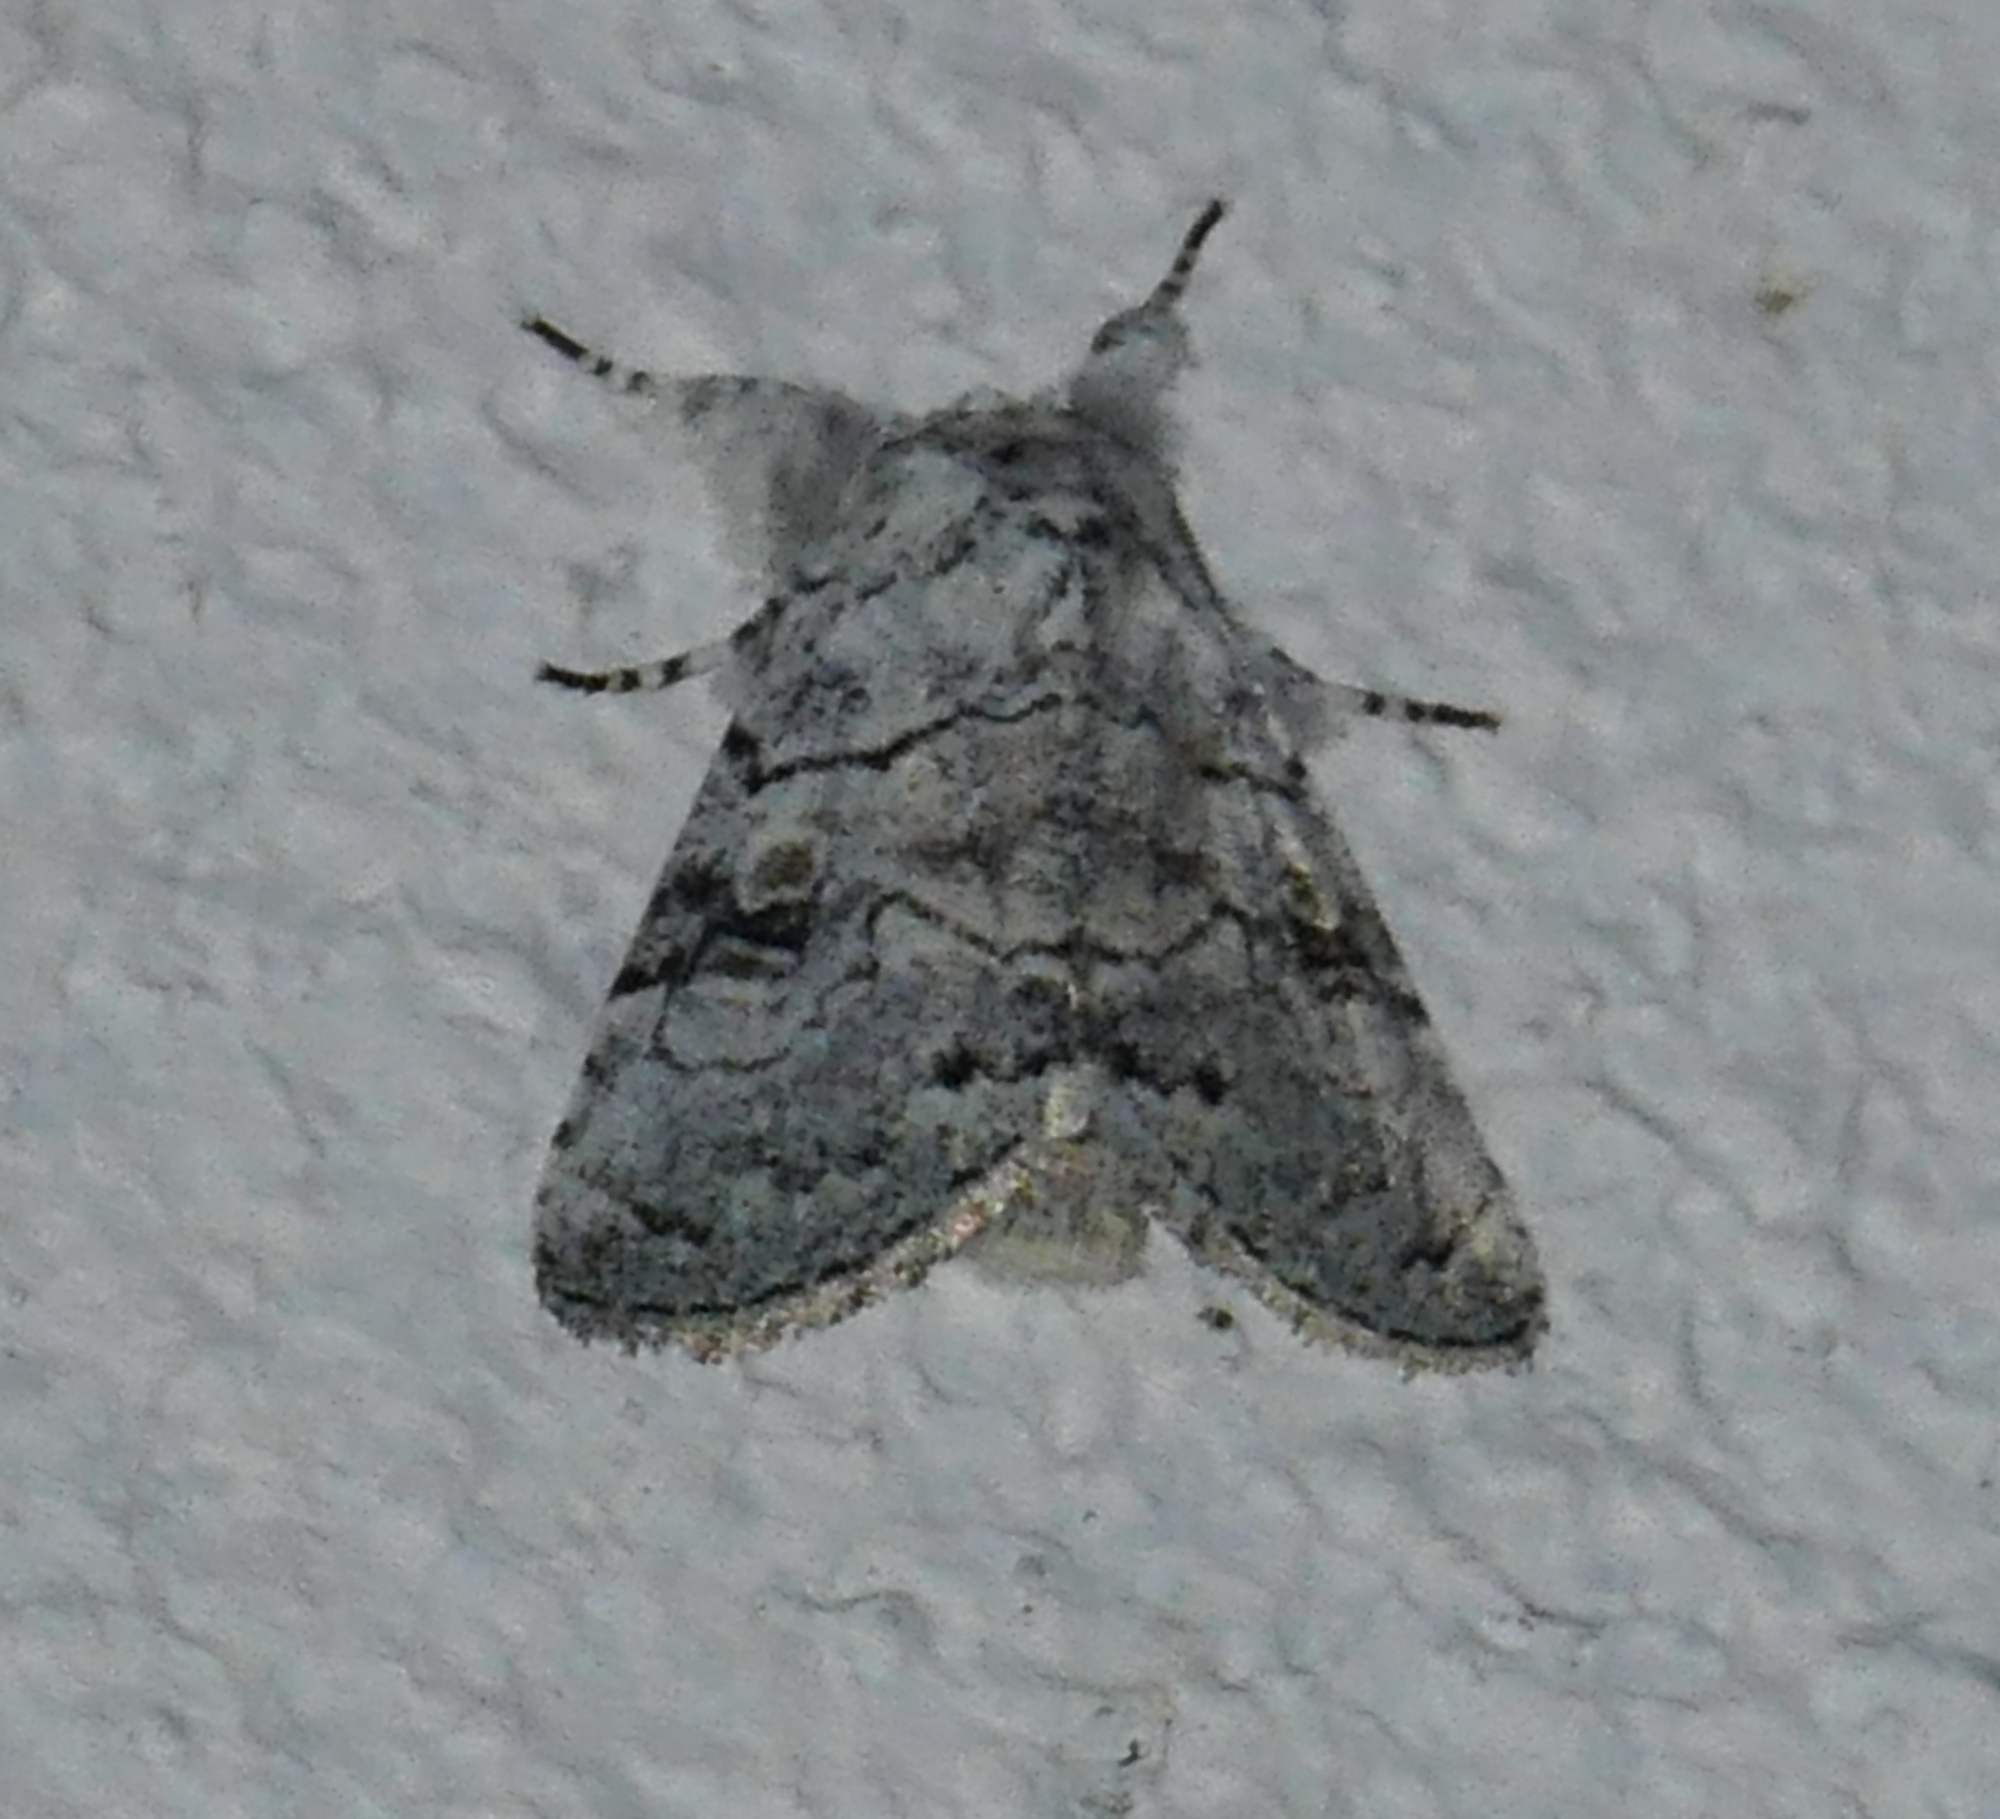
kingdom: Animalia
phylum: Arthropoda
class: Insecta
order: Lepidoptera
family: Noctuidae
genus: Charadra
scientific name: Charadra dispulsa
